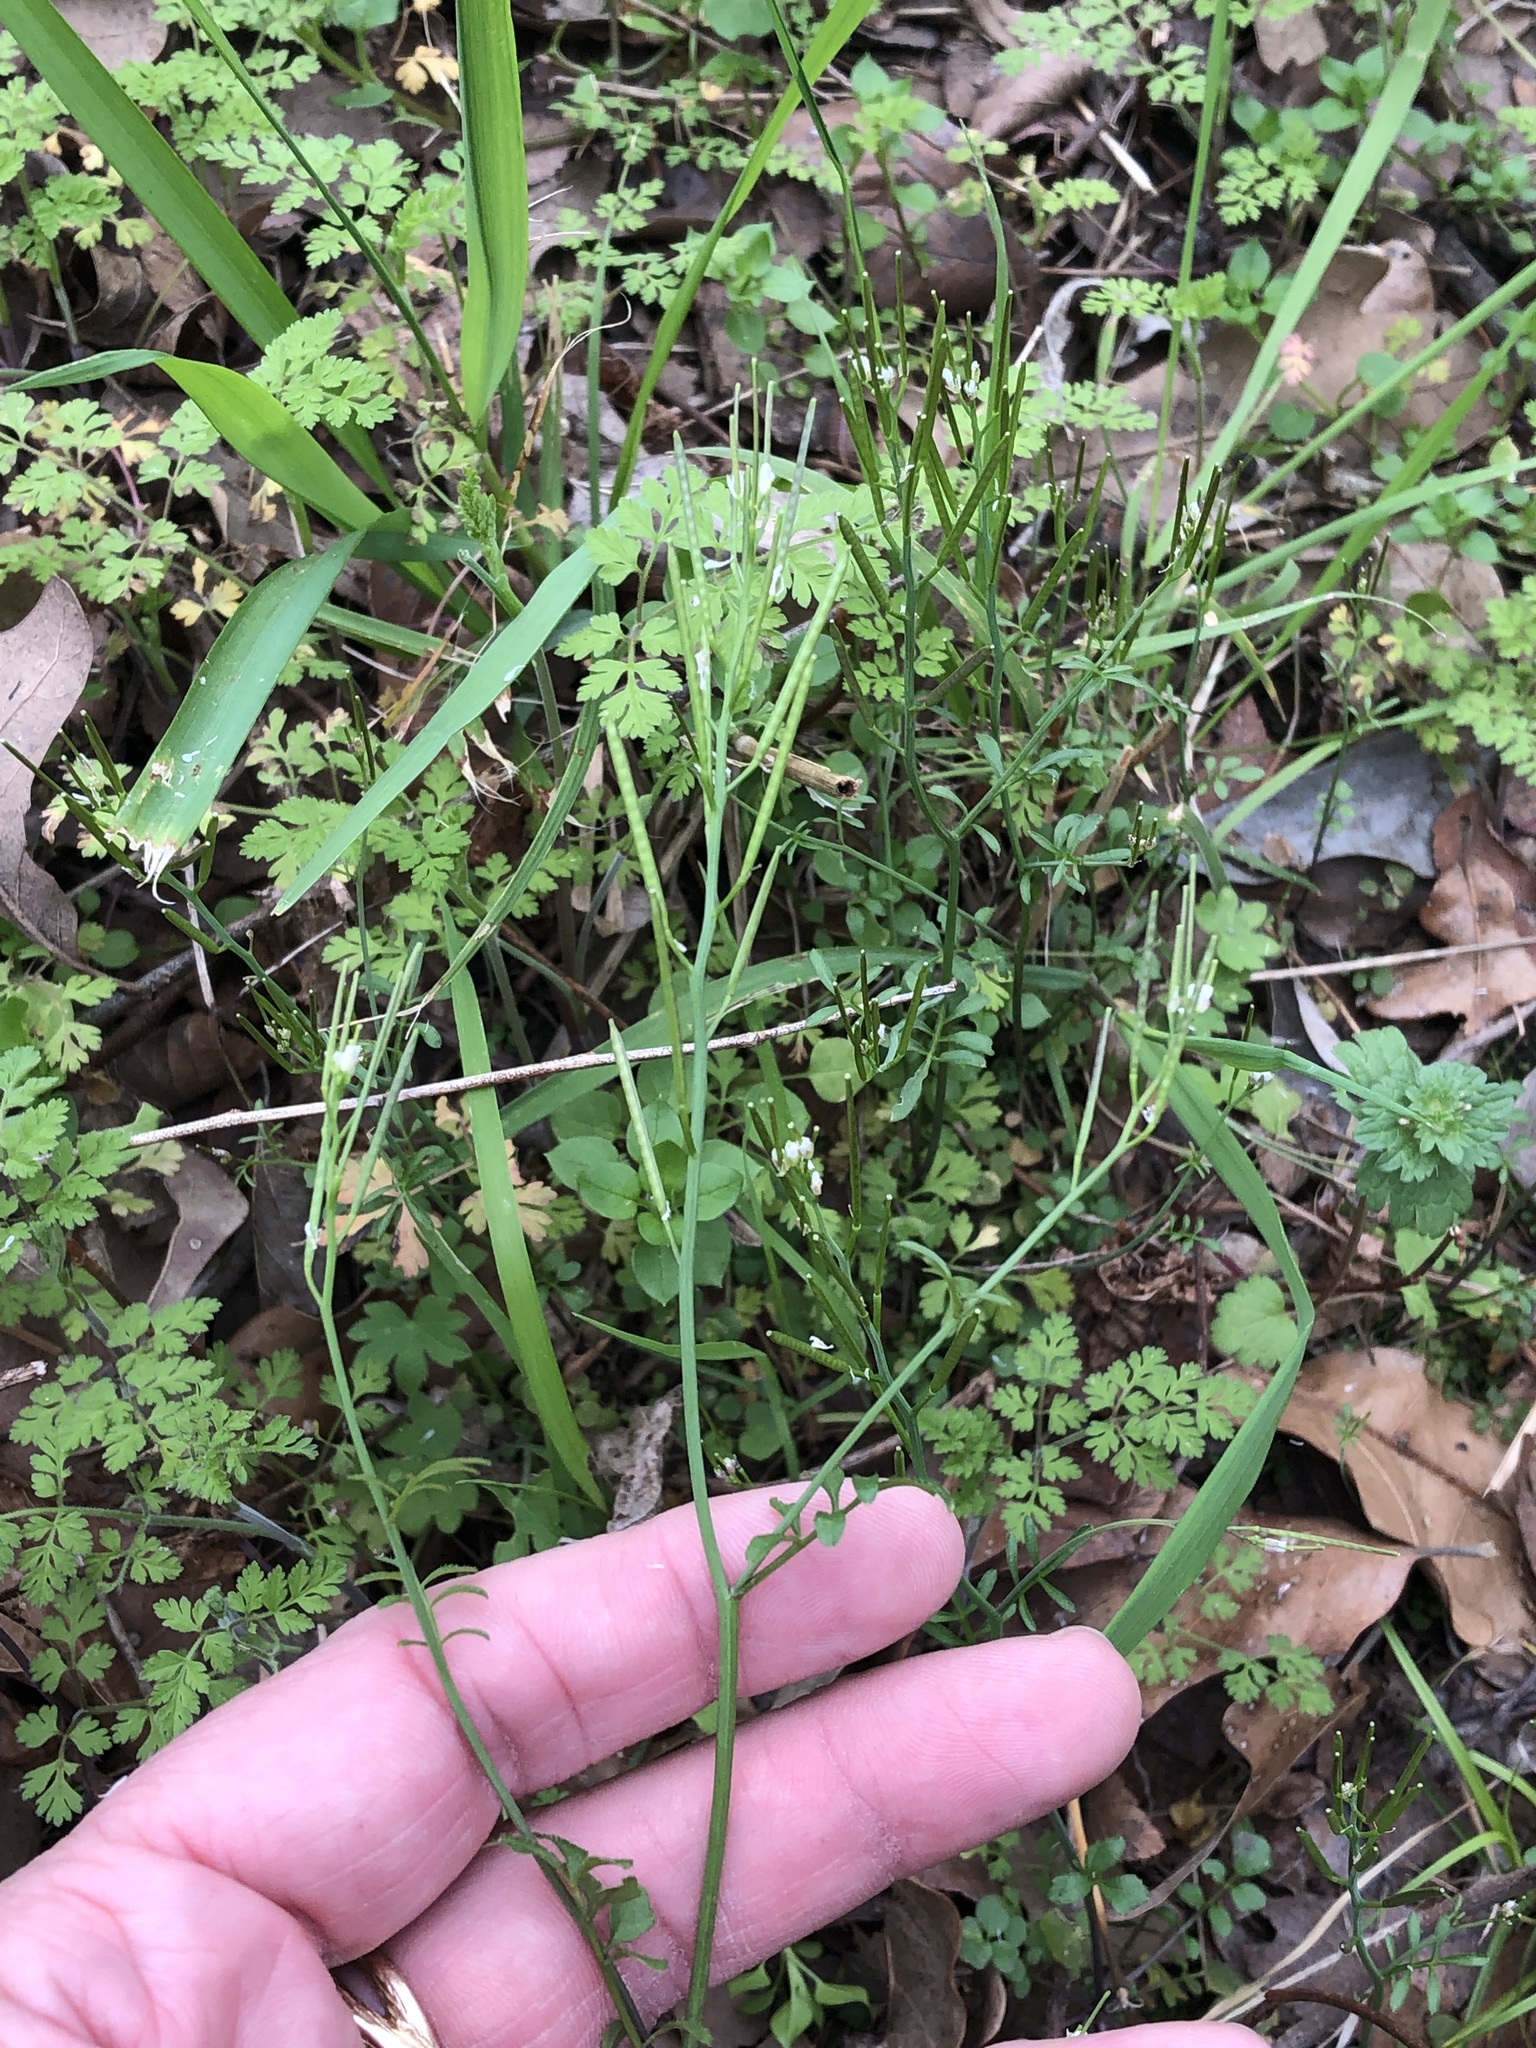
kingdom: Plantae
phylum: Tracheophyta
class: Magnoliopsida
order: Brassicales
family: Brassicaceae
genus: Cardamine
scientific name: Cardamine hirsuta
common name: Hairy bittercress
